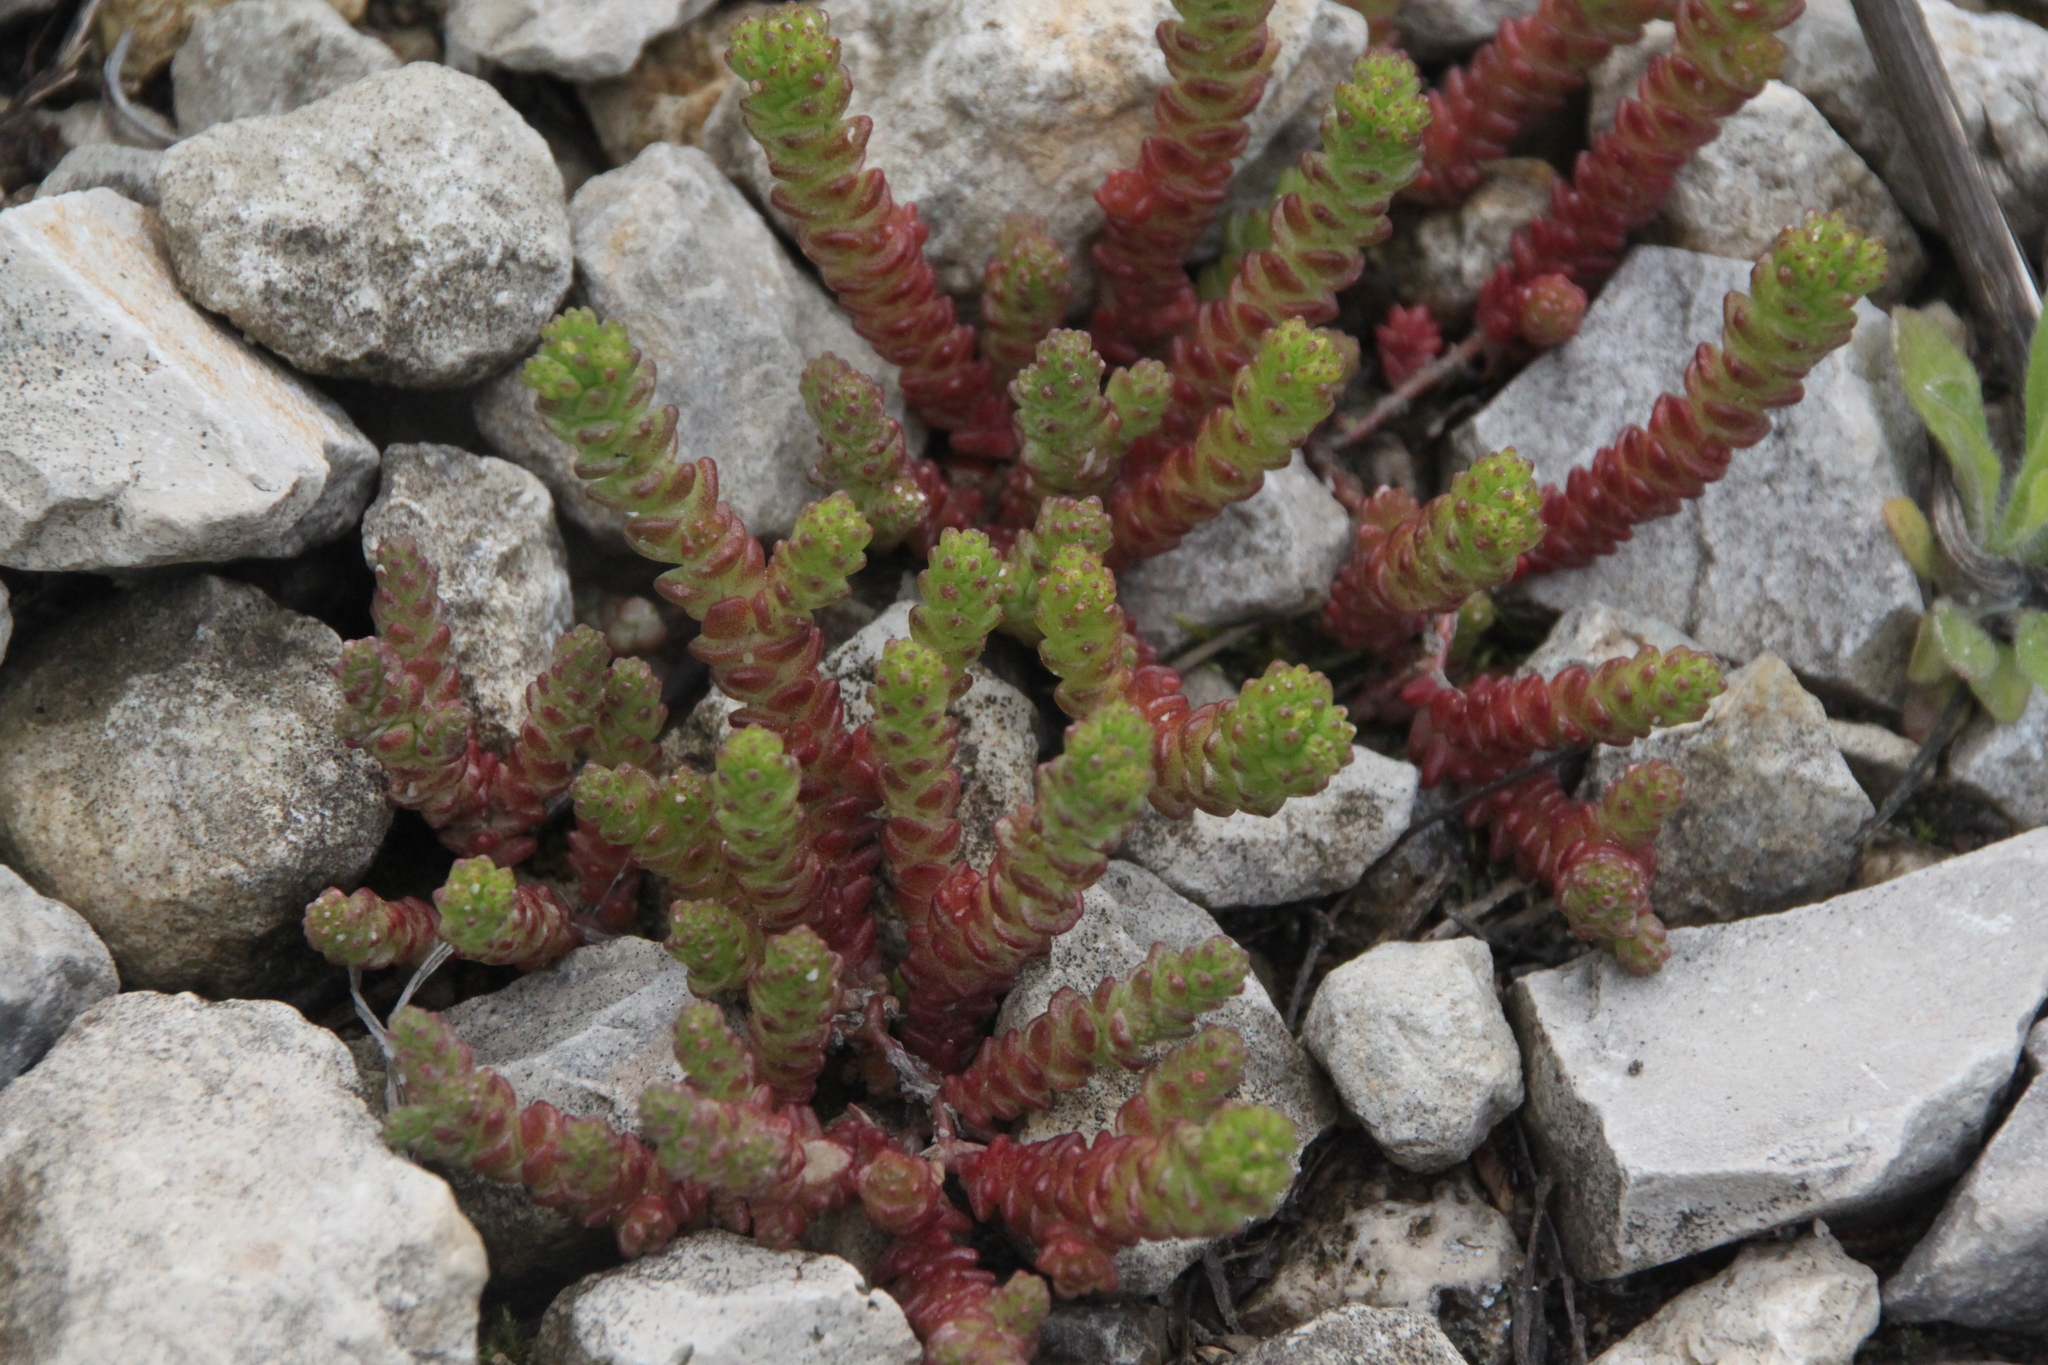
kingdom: Plantae
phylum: Tracheophyta
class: Magnoliopsida
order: Saxifragales
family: Crassulaceae
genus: Sedum
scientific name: Sedum acre
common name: Biting stonecrop
